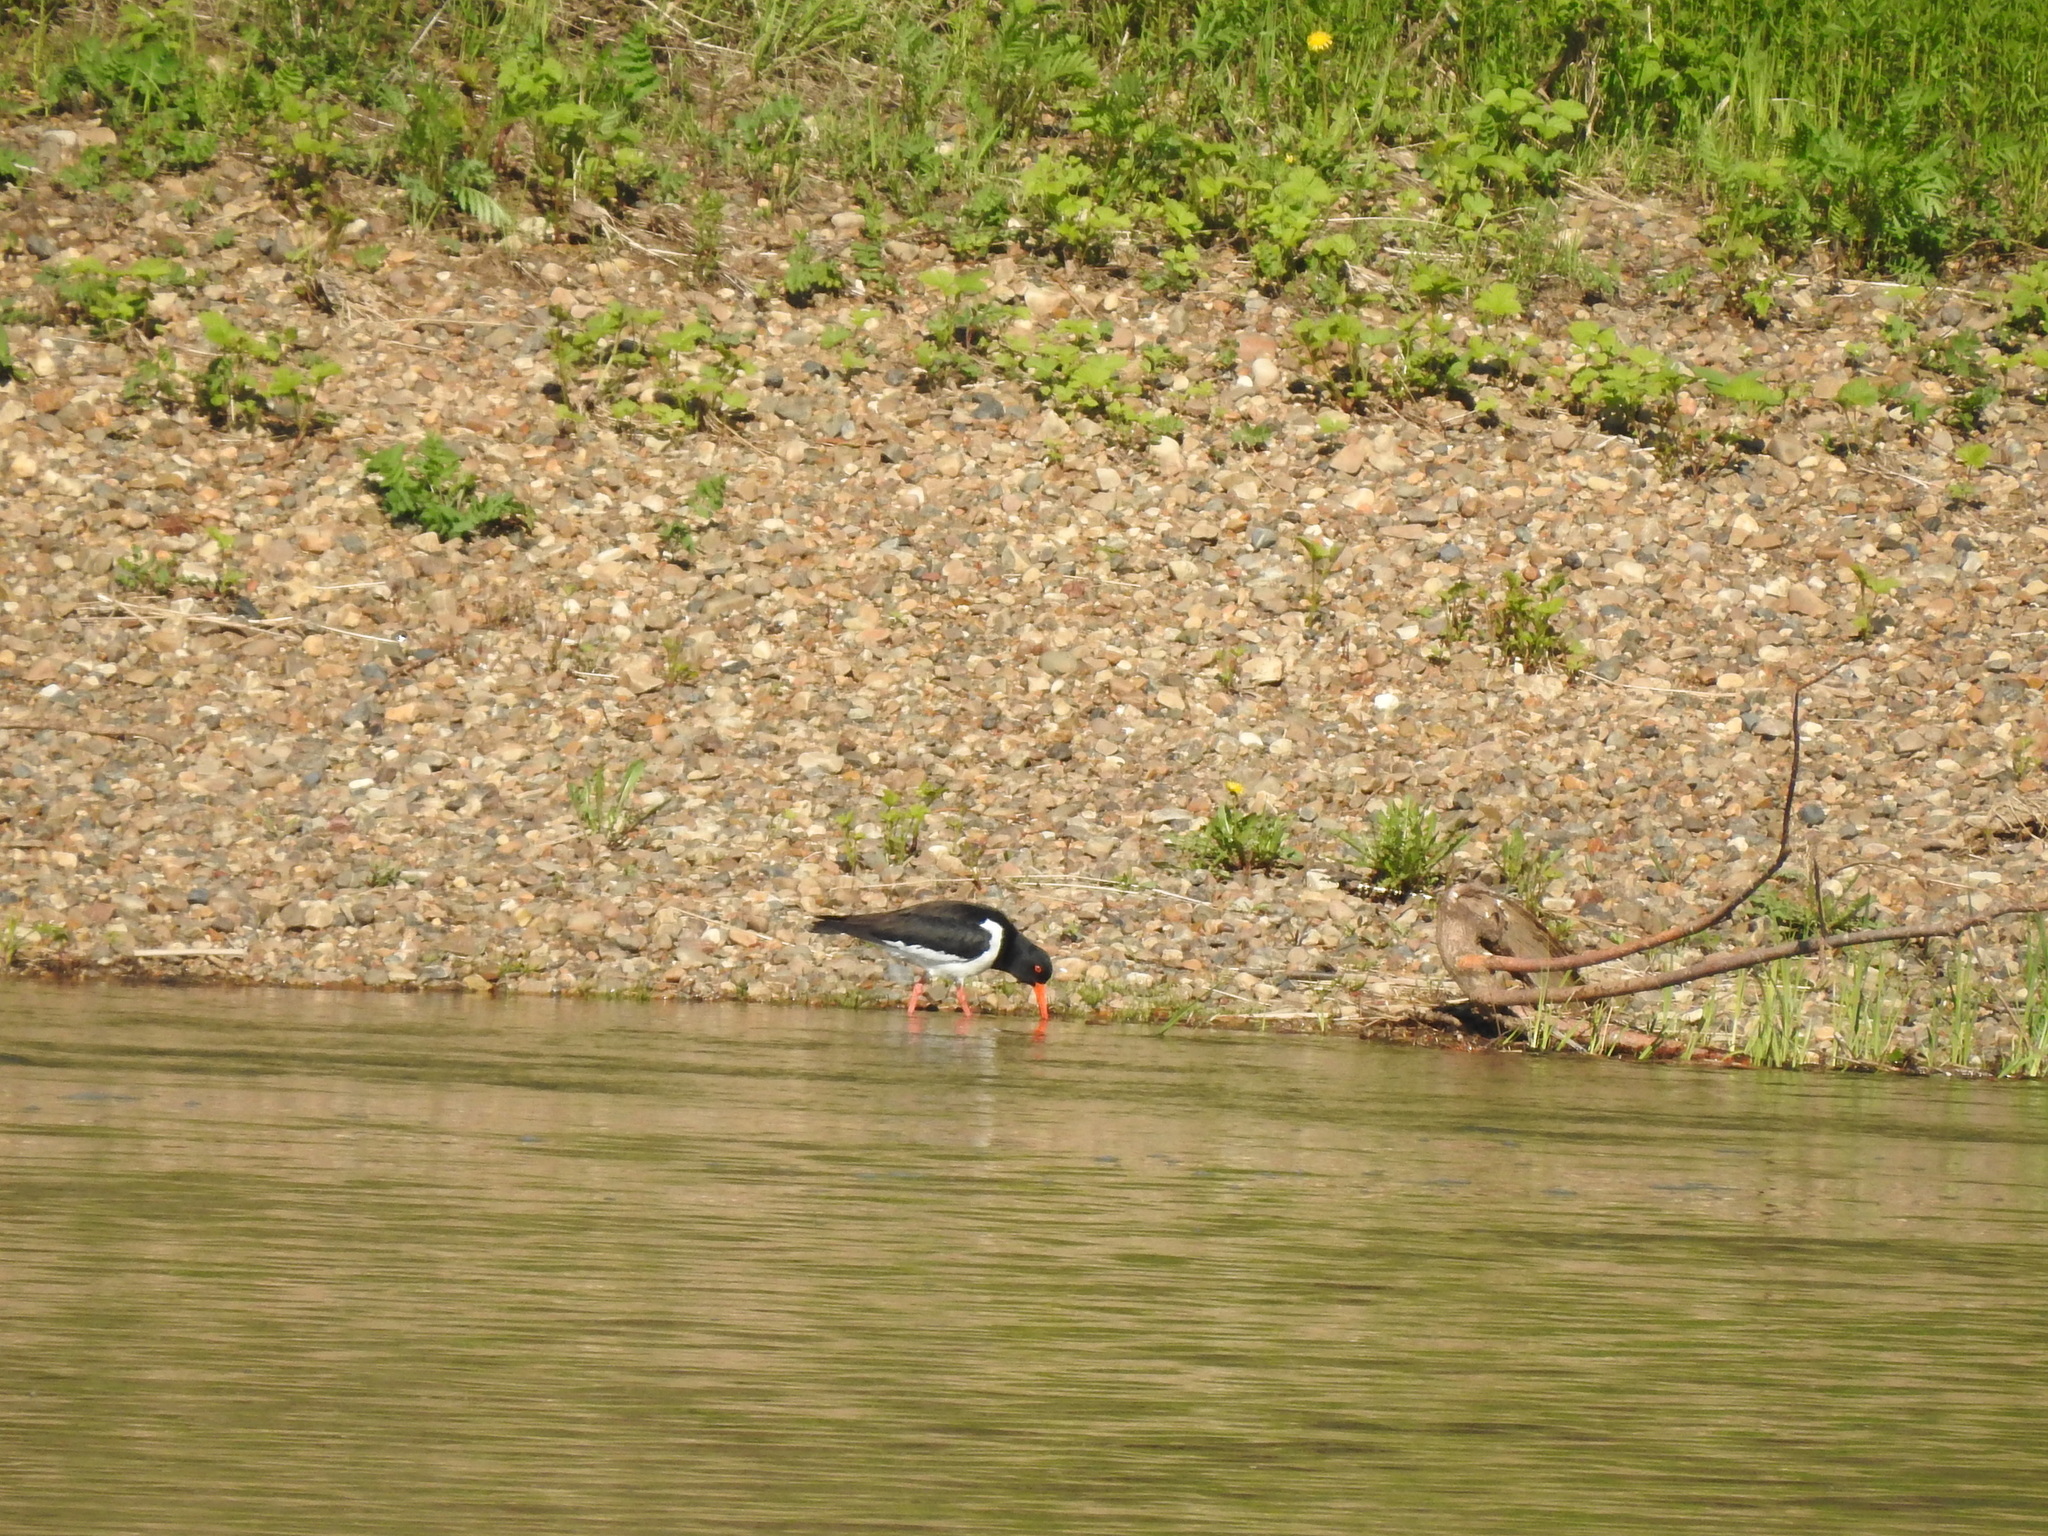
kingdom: Animalia
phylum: Chordata
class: Aves
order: Charadriiformes
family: Haematopodidae
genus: Haematopus
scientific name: Haematopus ostralegus
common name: Eurasian oystercatcher
